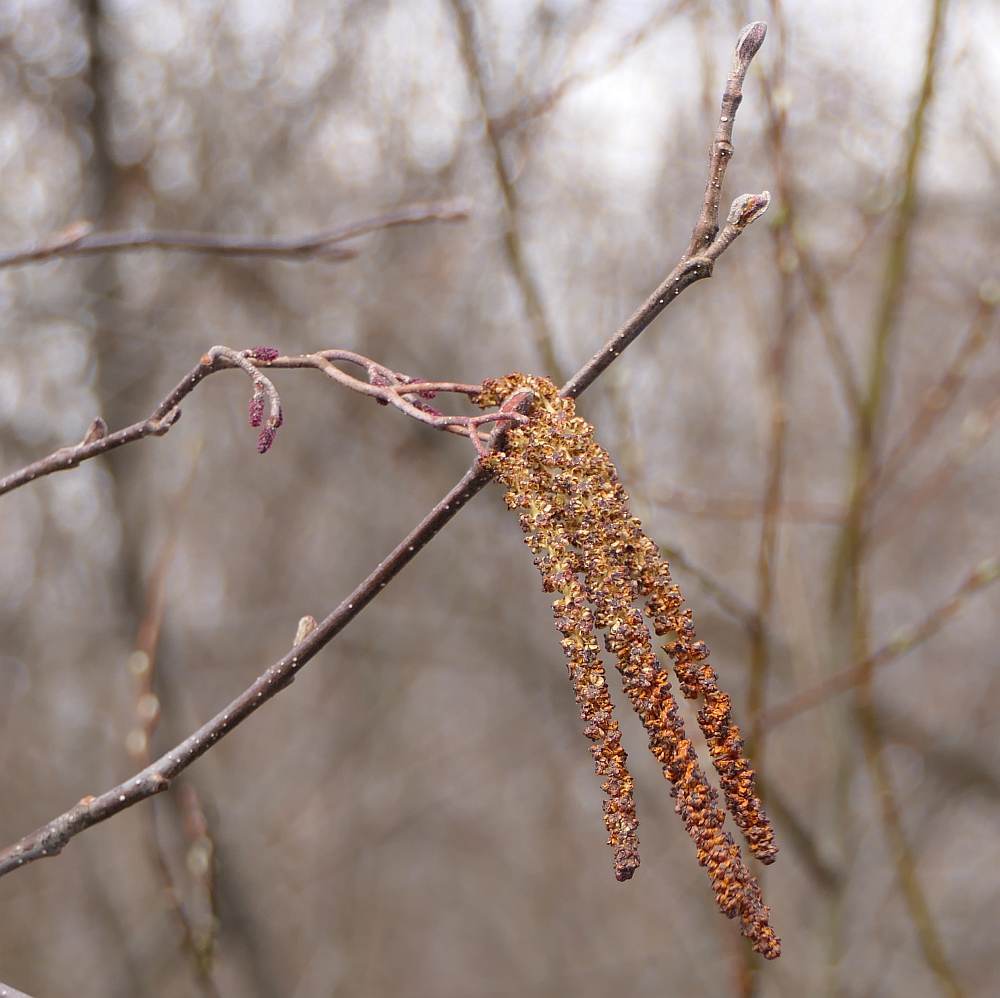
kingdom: Plantae
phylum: Tracheophyta
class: Magnoliopsida
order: Fagales
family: Betulaceae
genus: Alnus
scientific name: Alnus incana
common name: Grey alder
